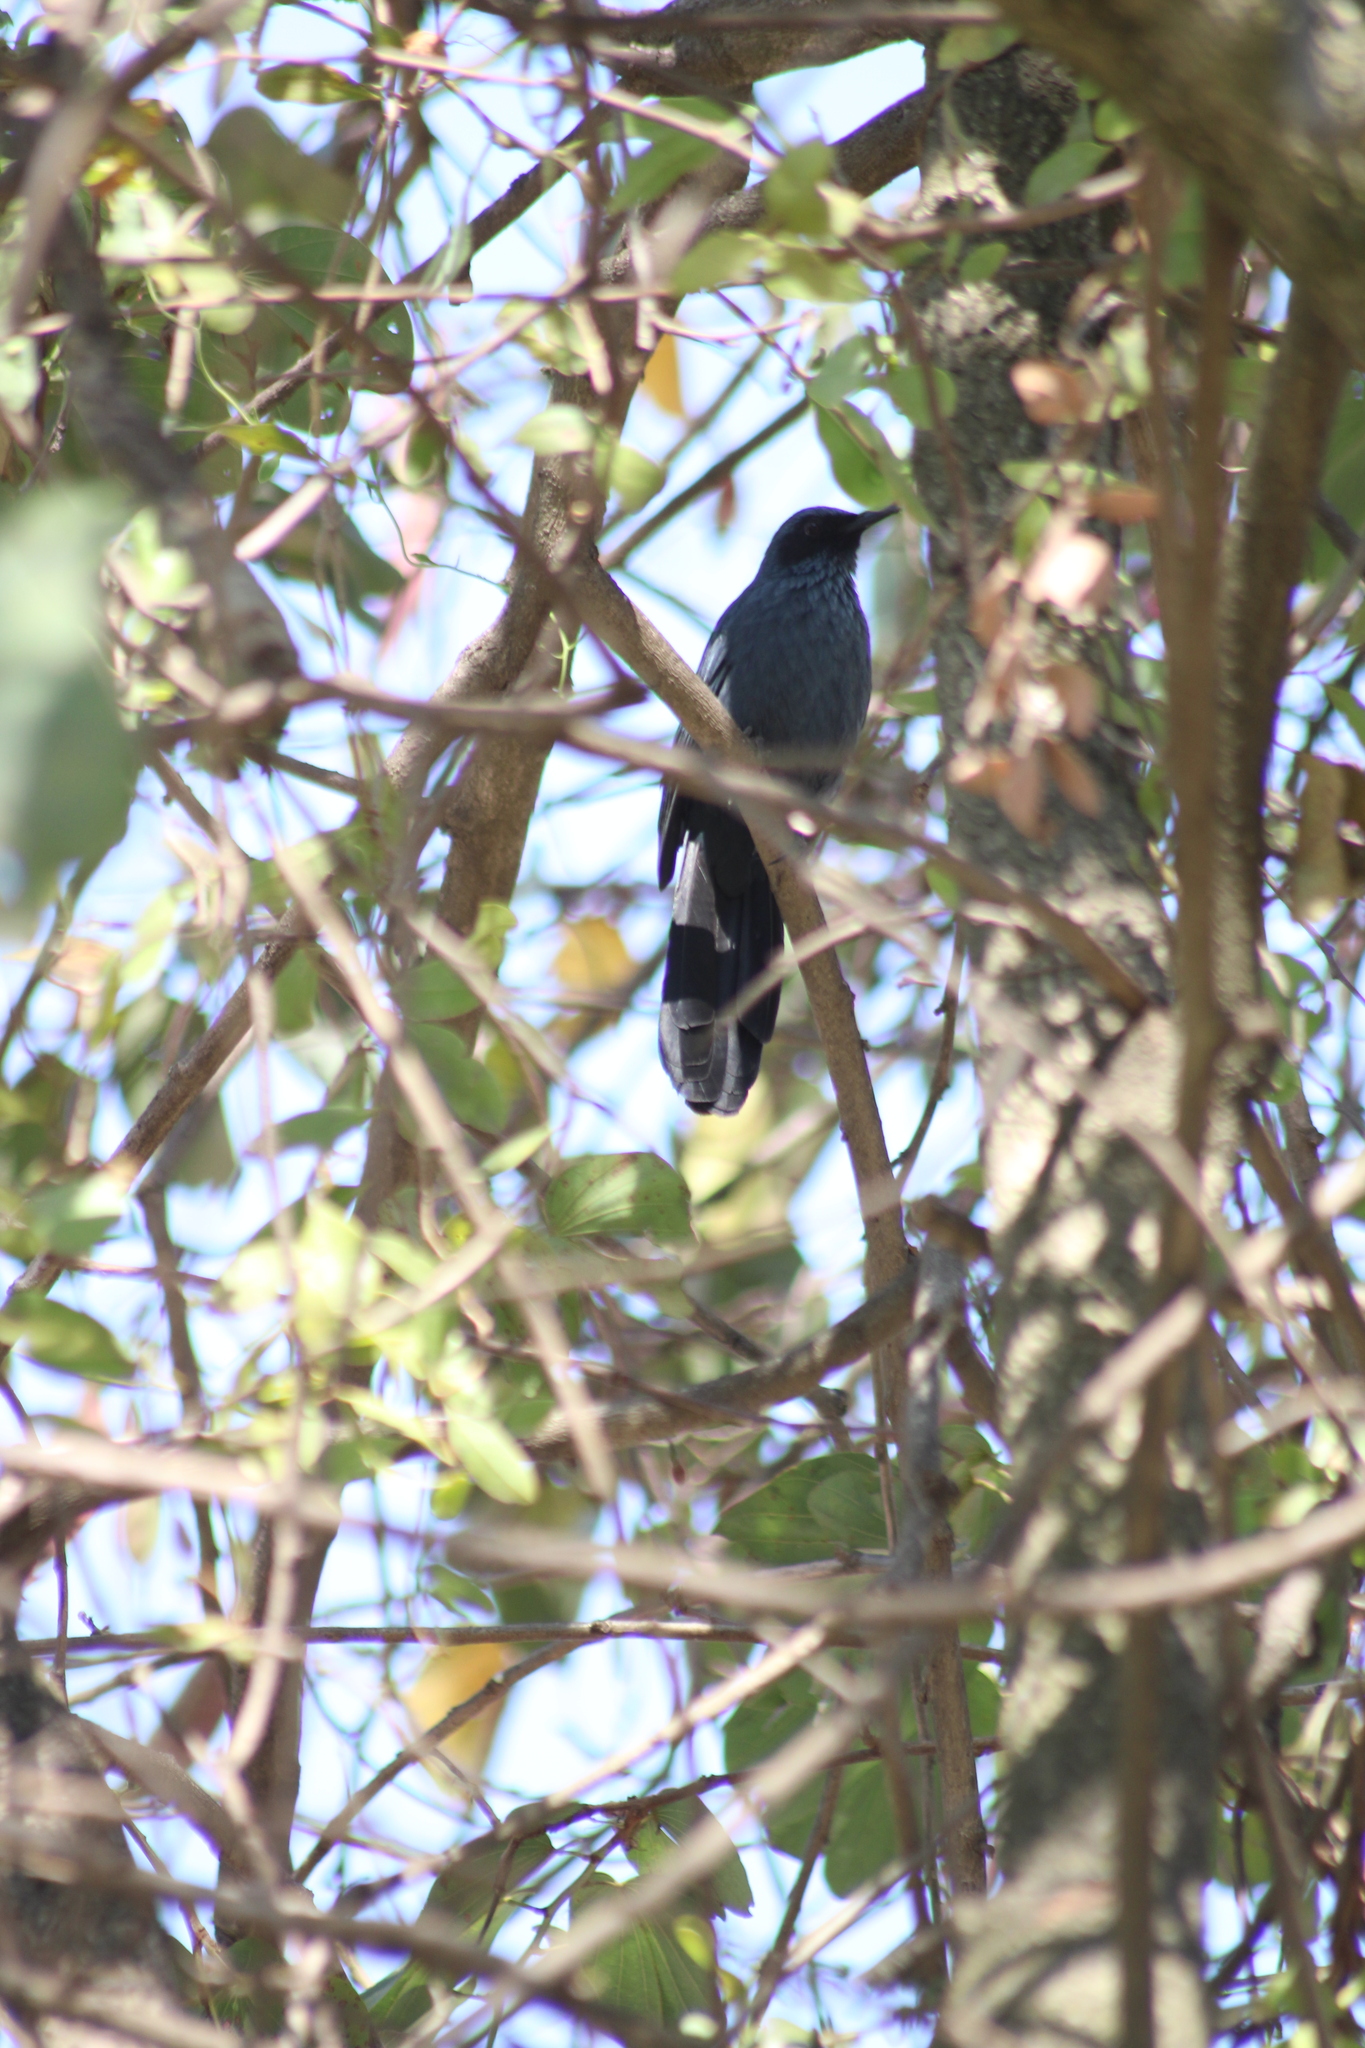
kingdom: Animalia
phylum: Chordata
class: Aves
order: Passeriformes
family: Mimidae
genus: Melanotis
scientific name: Melanotis caerulescens
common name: Blue mockingbird
